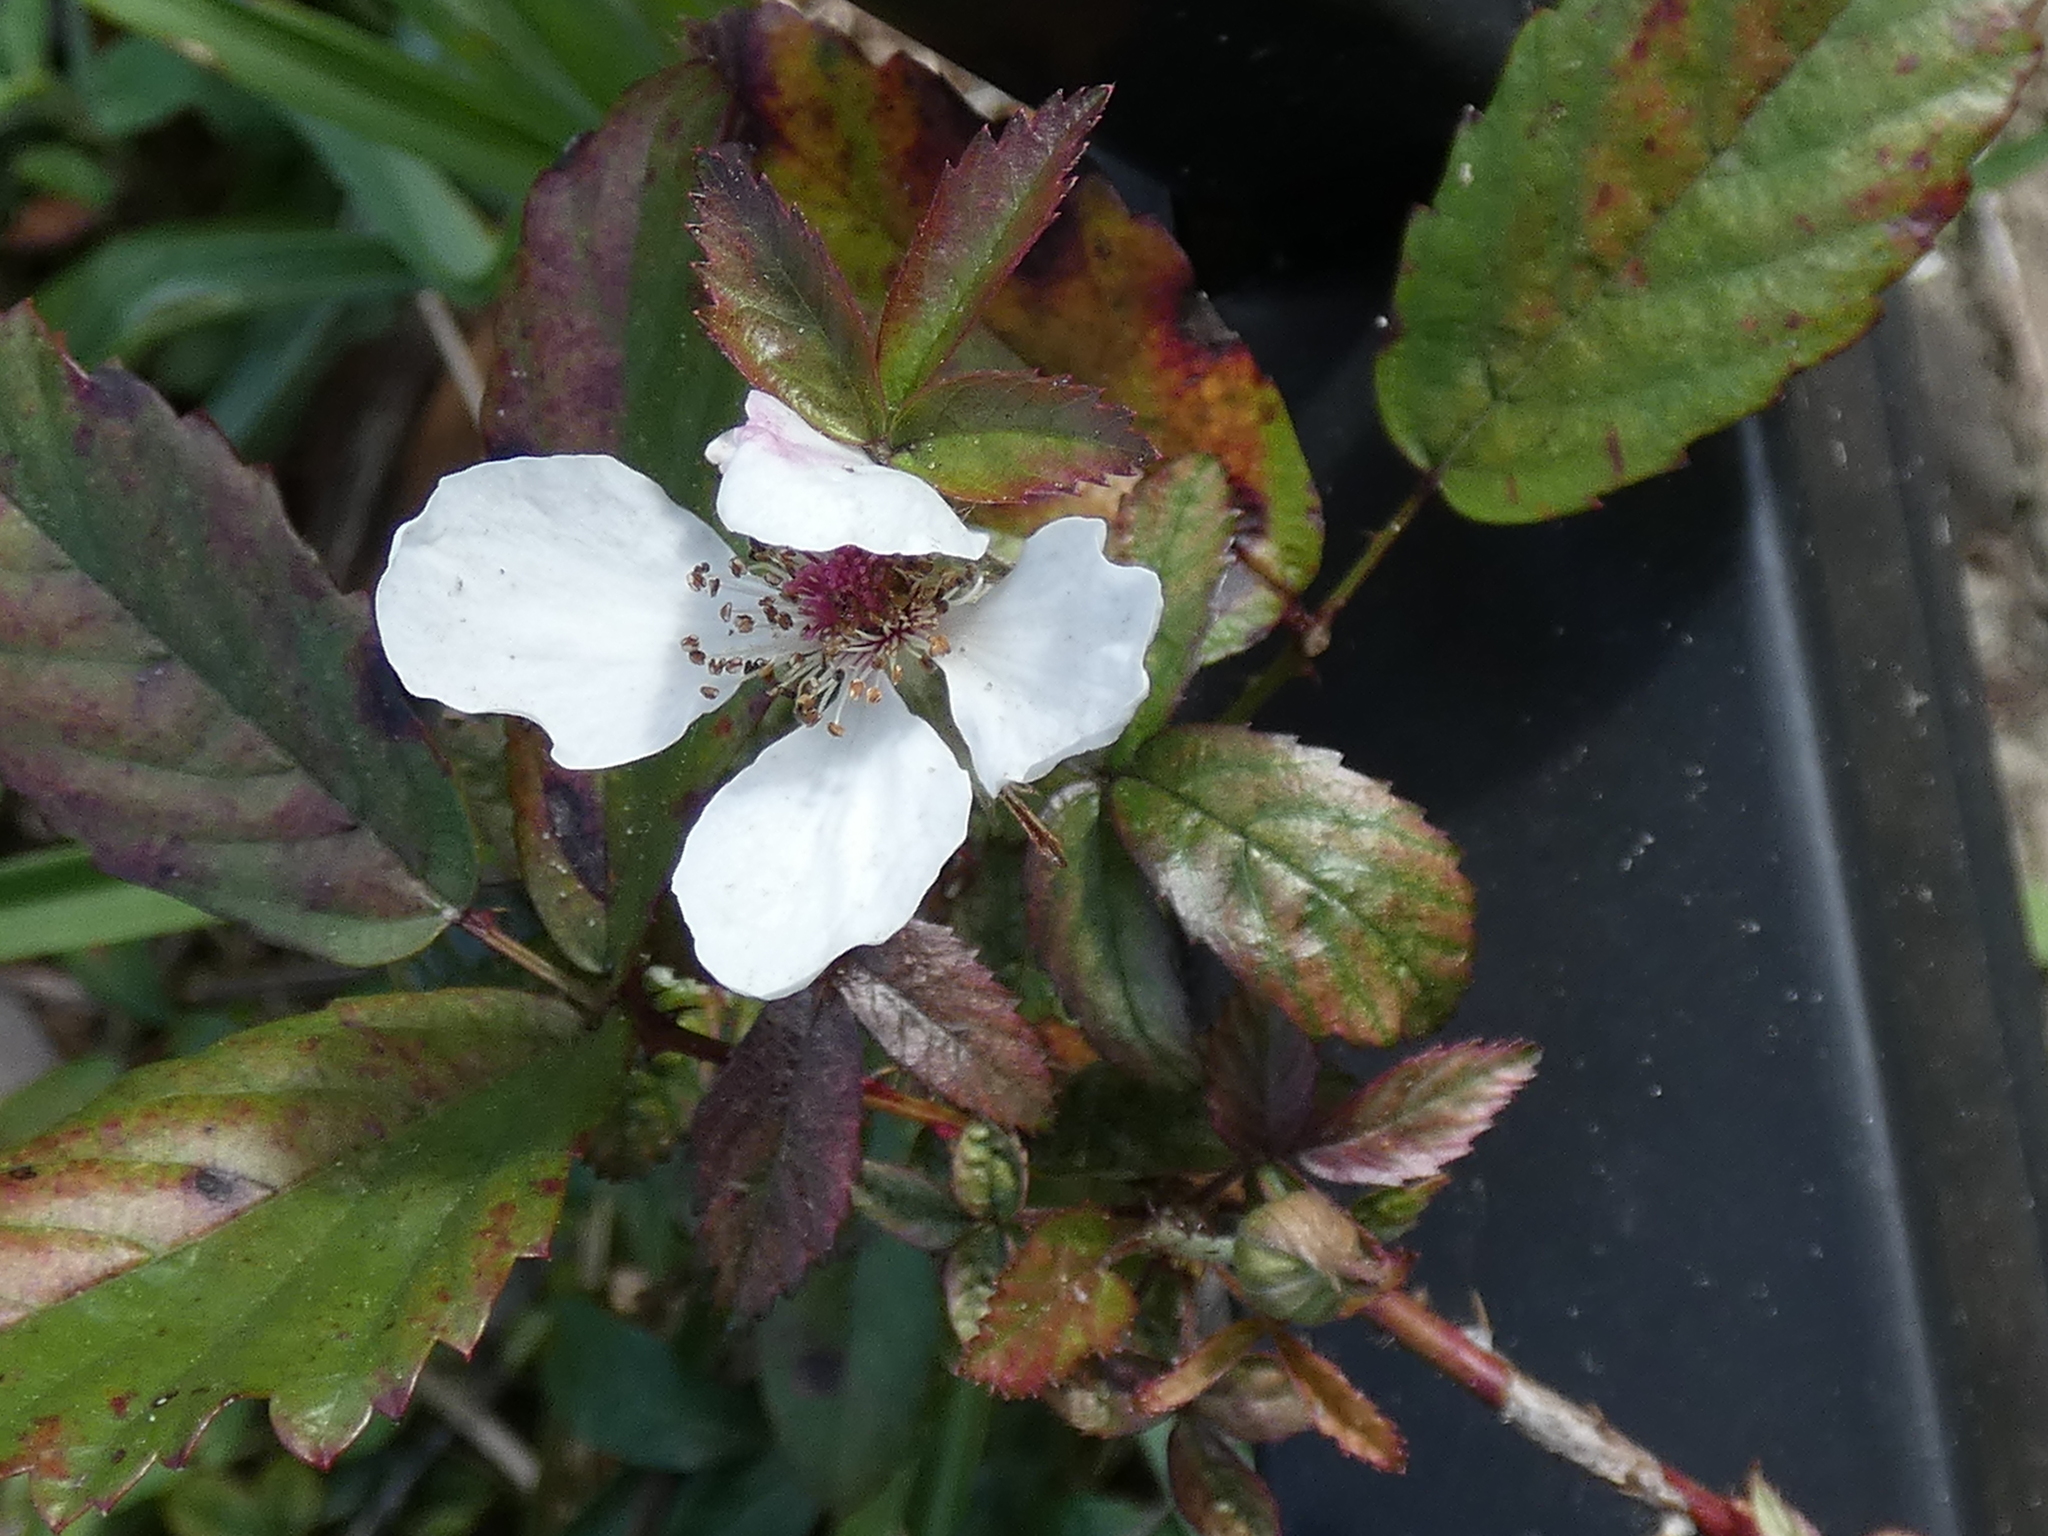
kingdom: Plantae
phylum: Tracheophyta
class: Magnoliopsida
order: Rosales
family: Rosaceae
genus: Rubus
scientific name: Rubus trivialis
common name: Southern dewberry
